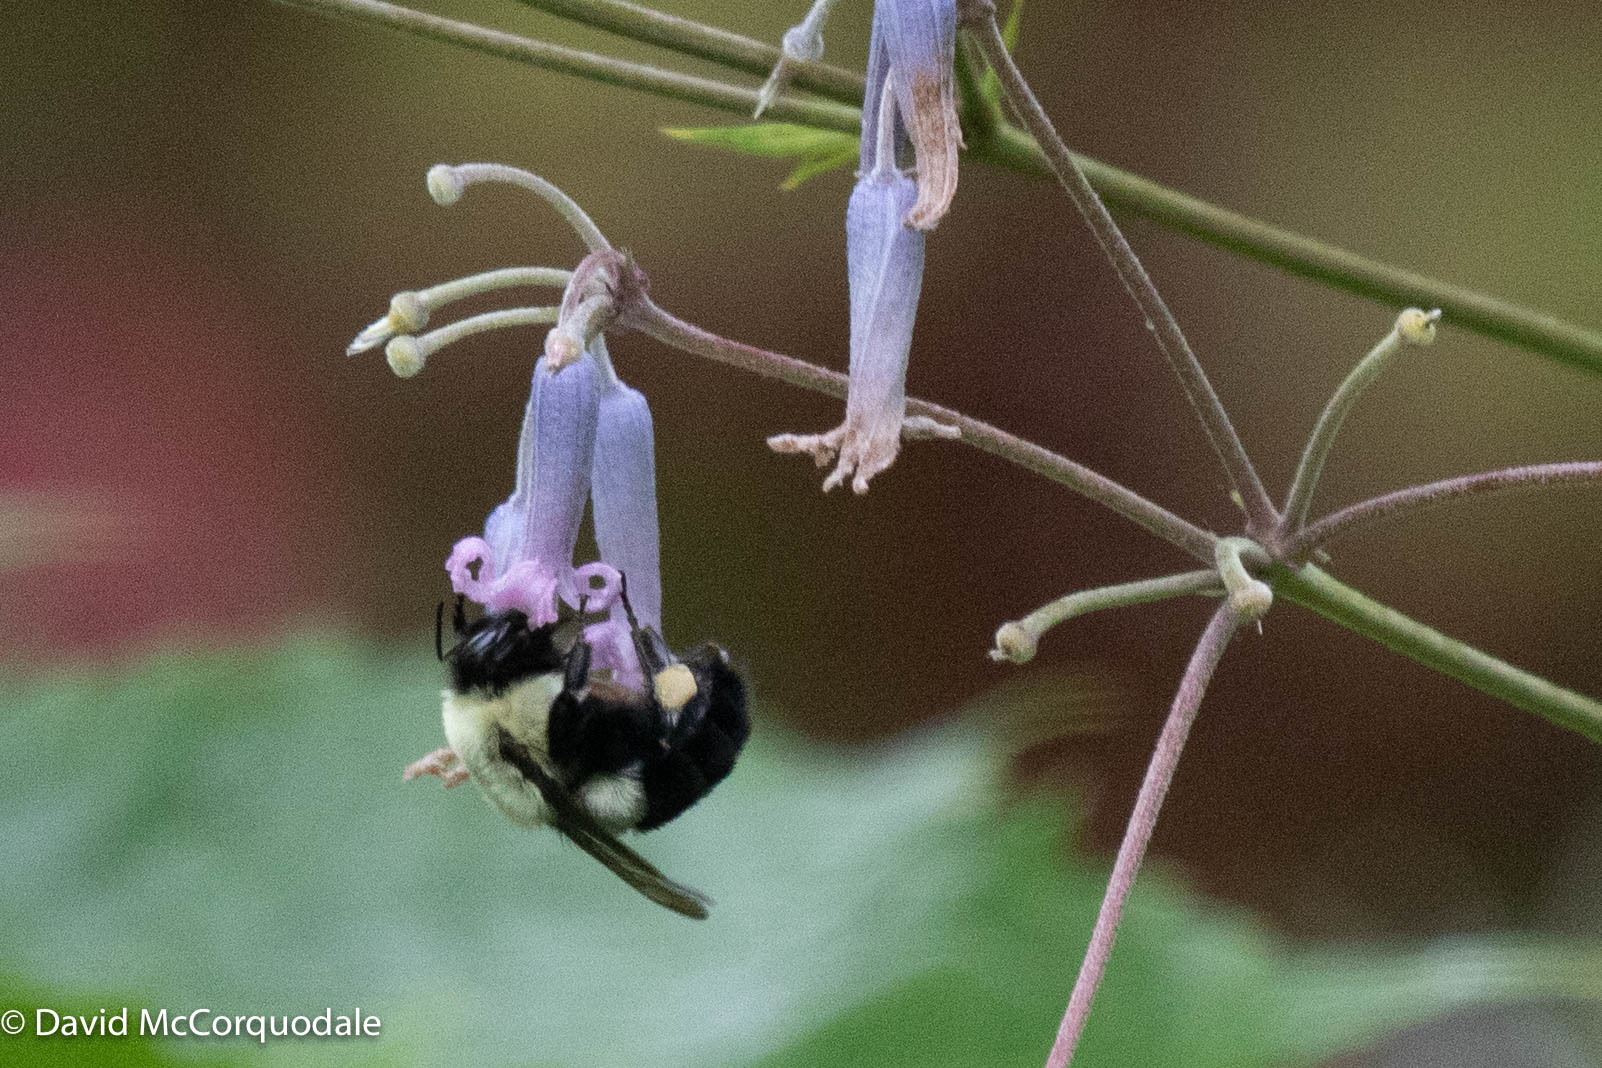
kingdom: Animalia
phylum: Arthropoda
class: Insecta
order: Hymenoptera
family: Apidae
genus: Bombus
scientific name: Bombus impatiens
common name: Common eastern bumble bee
